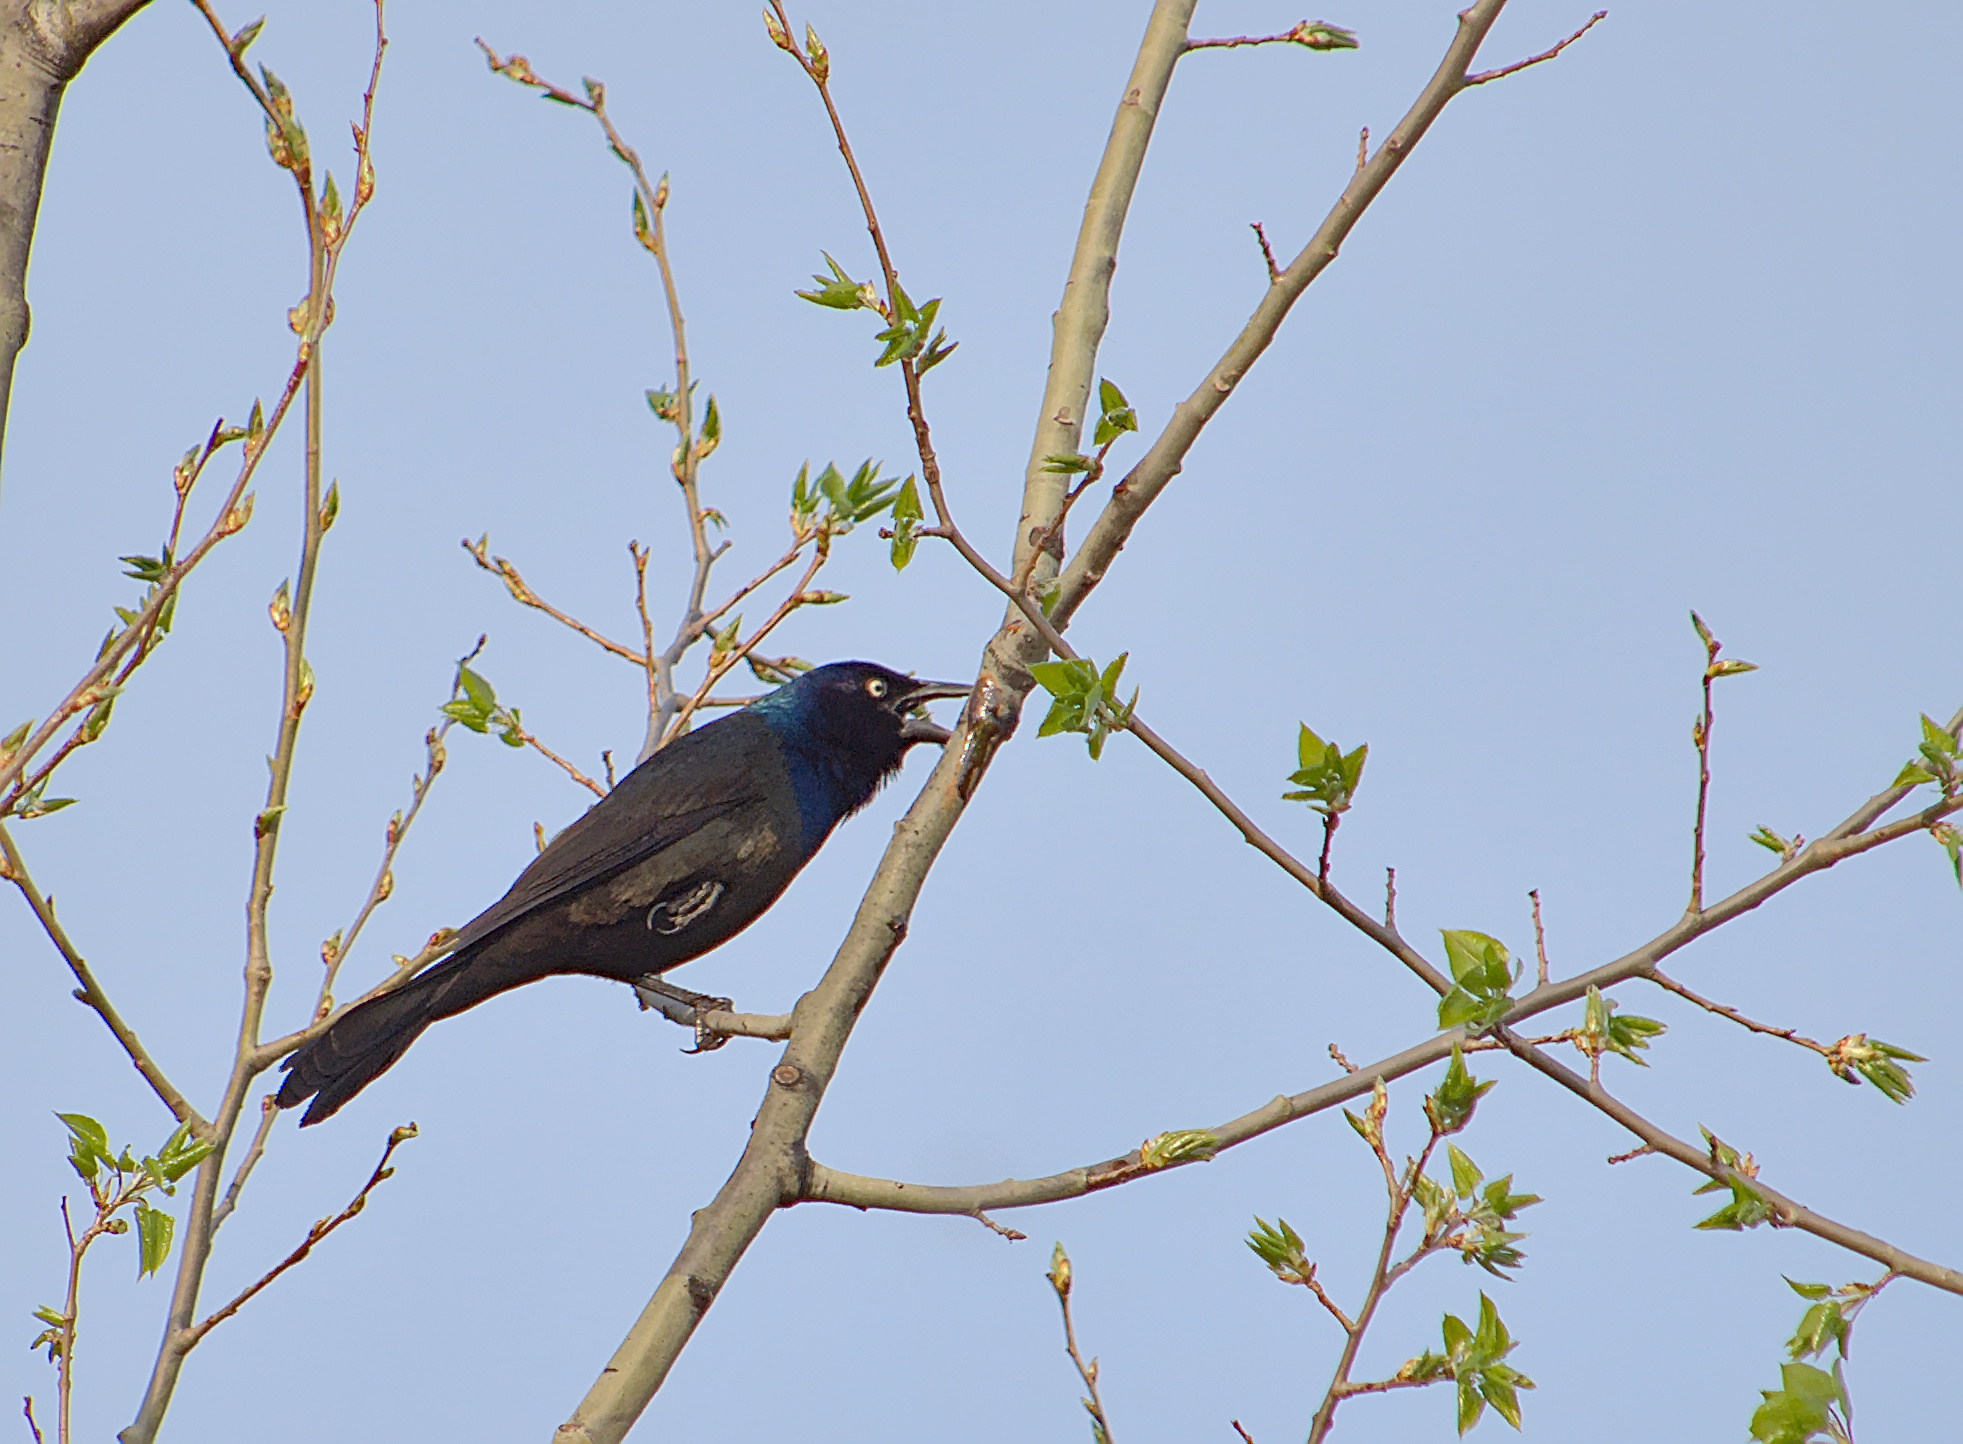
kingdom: Animalia
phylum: Chordata
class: Aves
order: Passeriformes
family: Icteridae
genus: Quiscalus
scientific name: Quiscalus quiscula
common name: Common grackle
